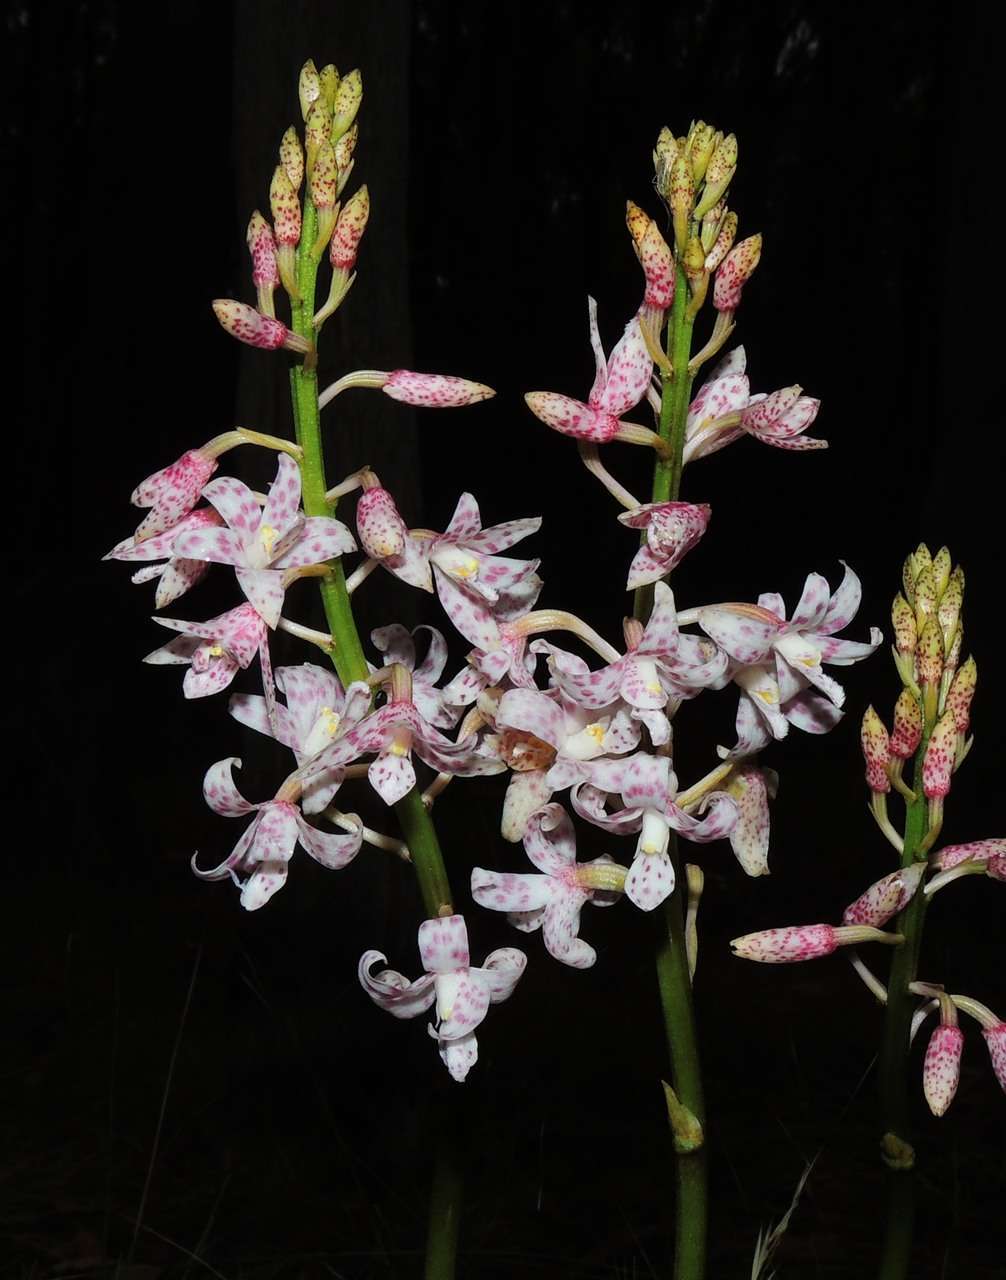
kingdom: Plantae
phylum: Tracheophyta
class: Liliopsida
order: Asparagales
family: Orchidaceae
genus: Dipodium
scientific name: Dipodium pardalinum
